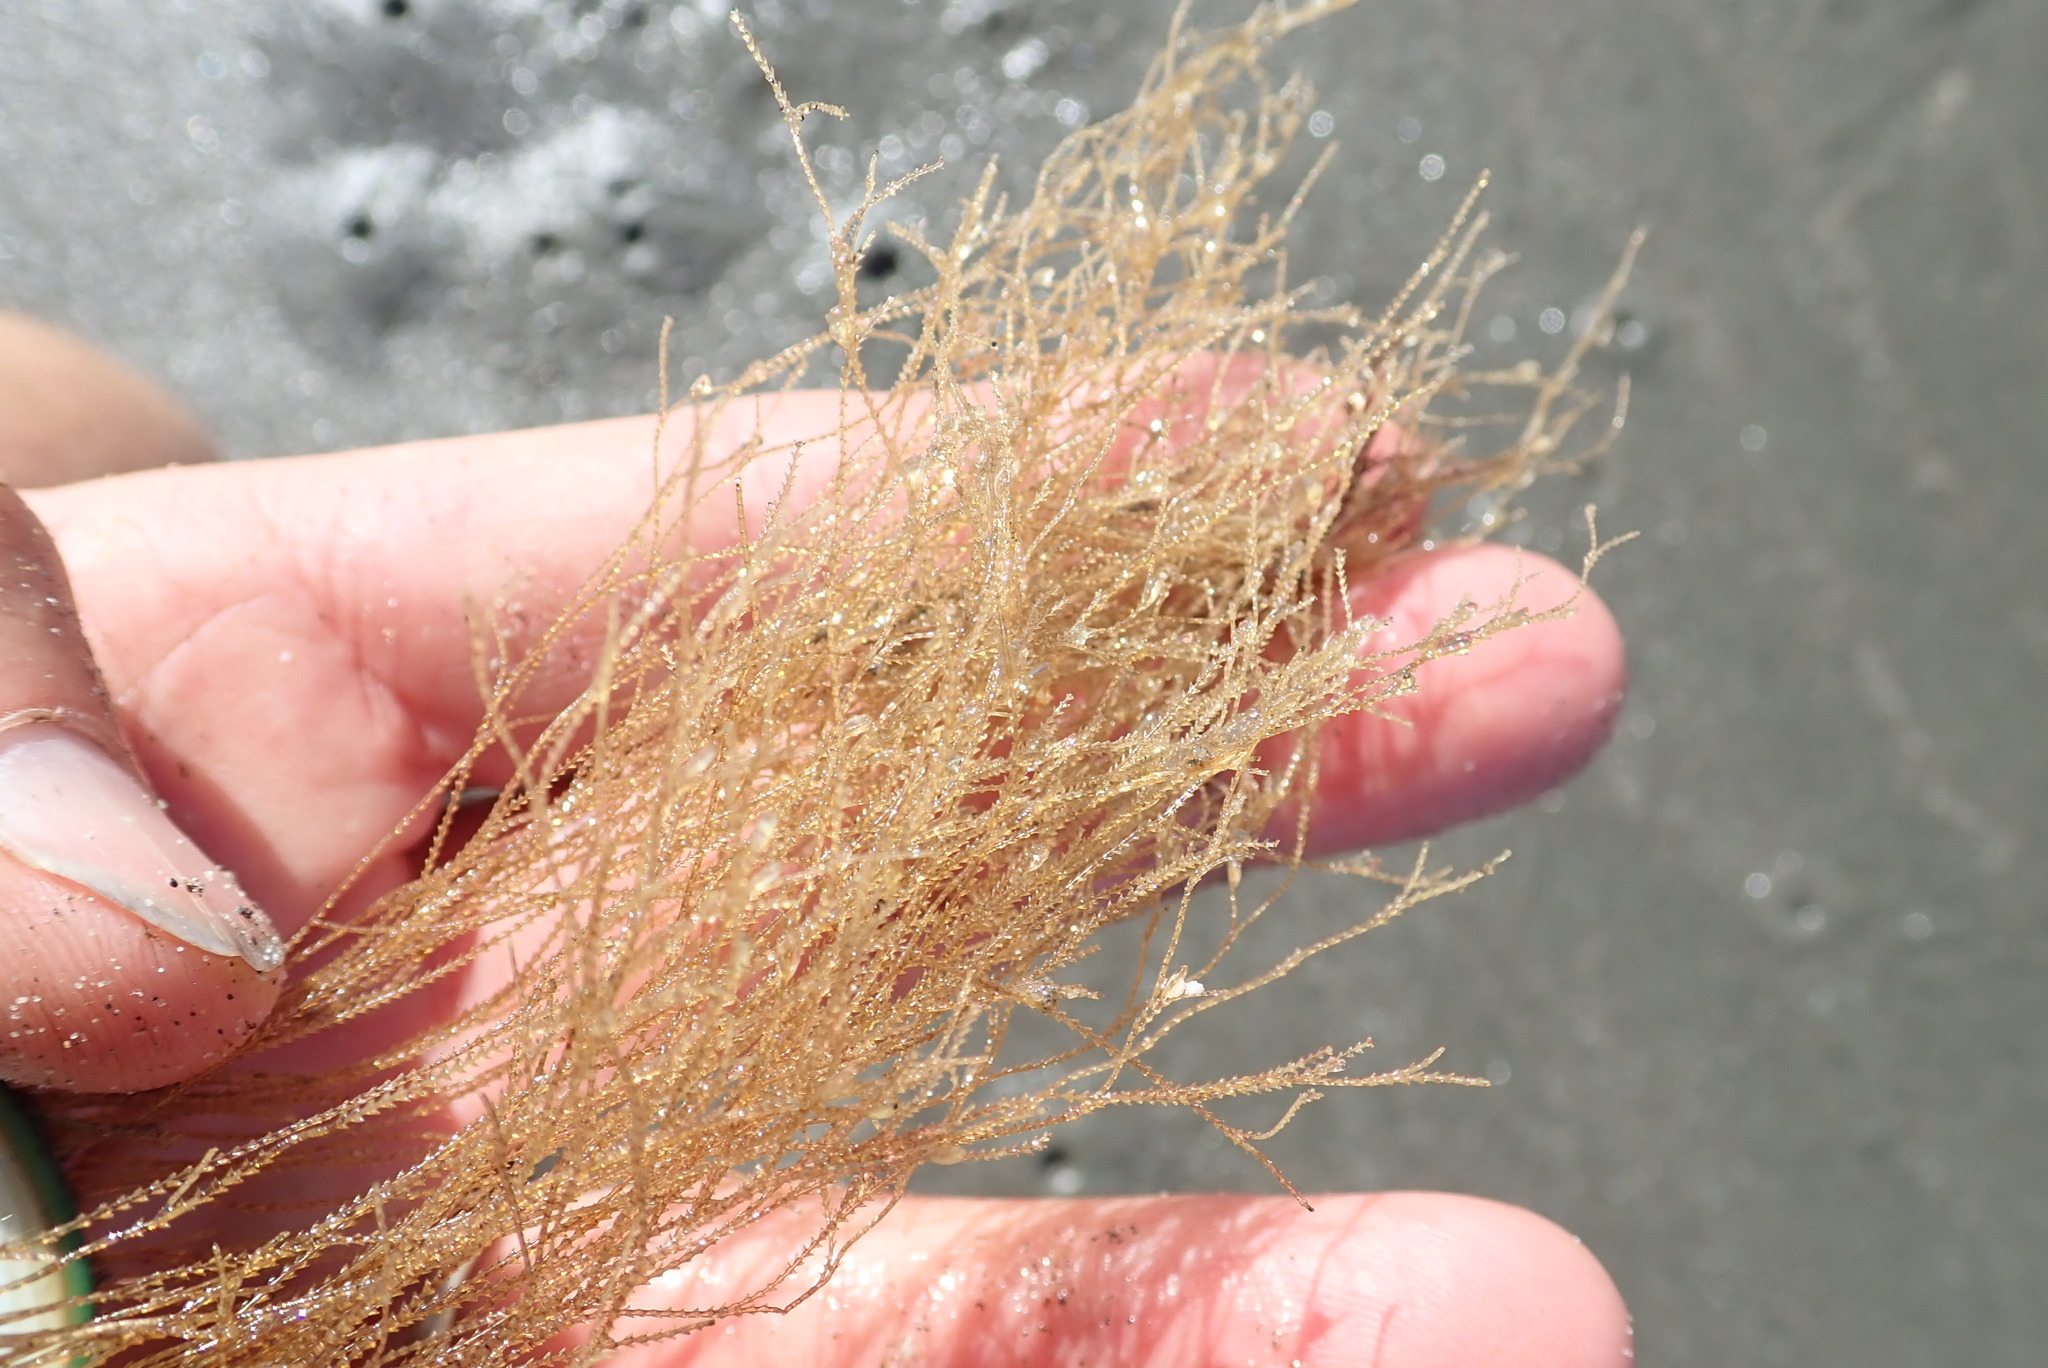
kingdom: Animalia
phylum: Cnidaria
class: Hydrozoa
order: Leptothecata
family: Sertulariidae
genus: Amphisbetia
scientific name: Amphisbetia bispinosa
